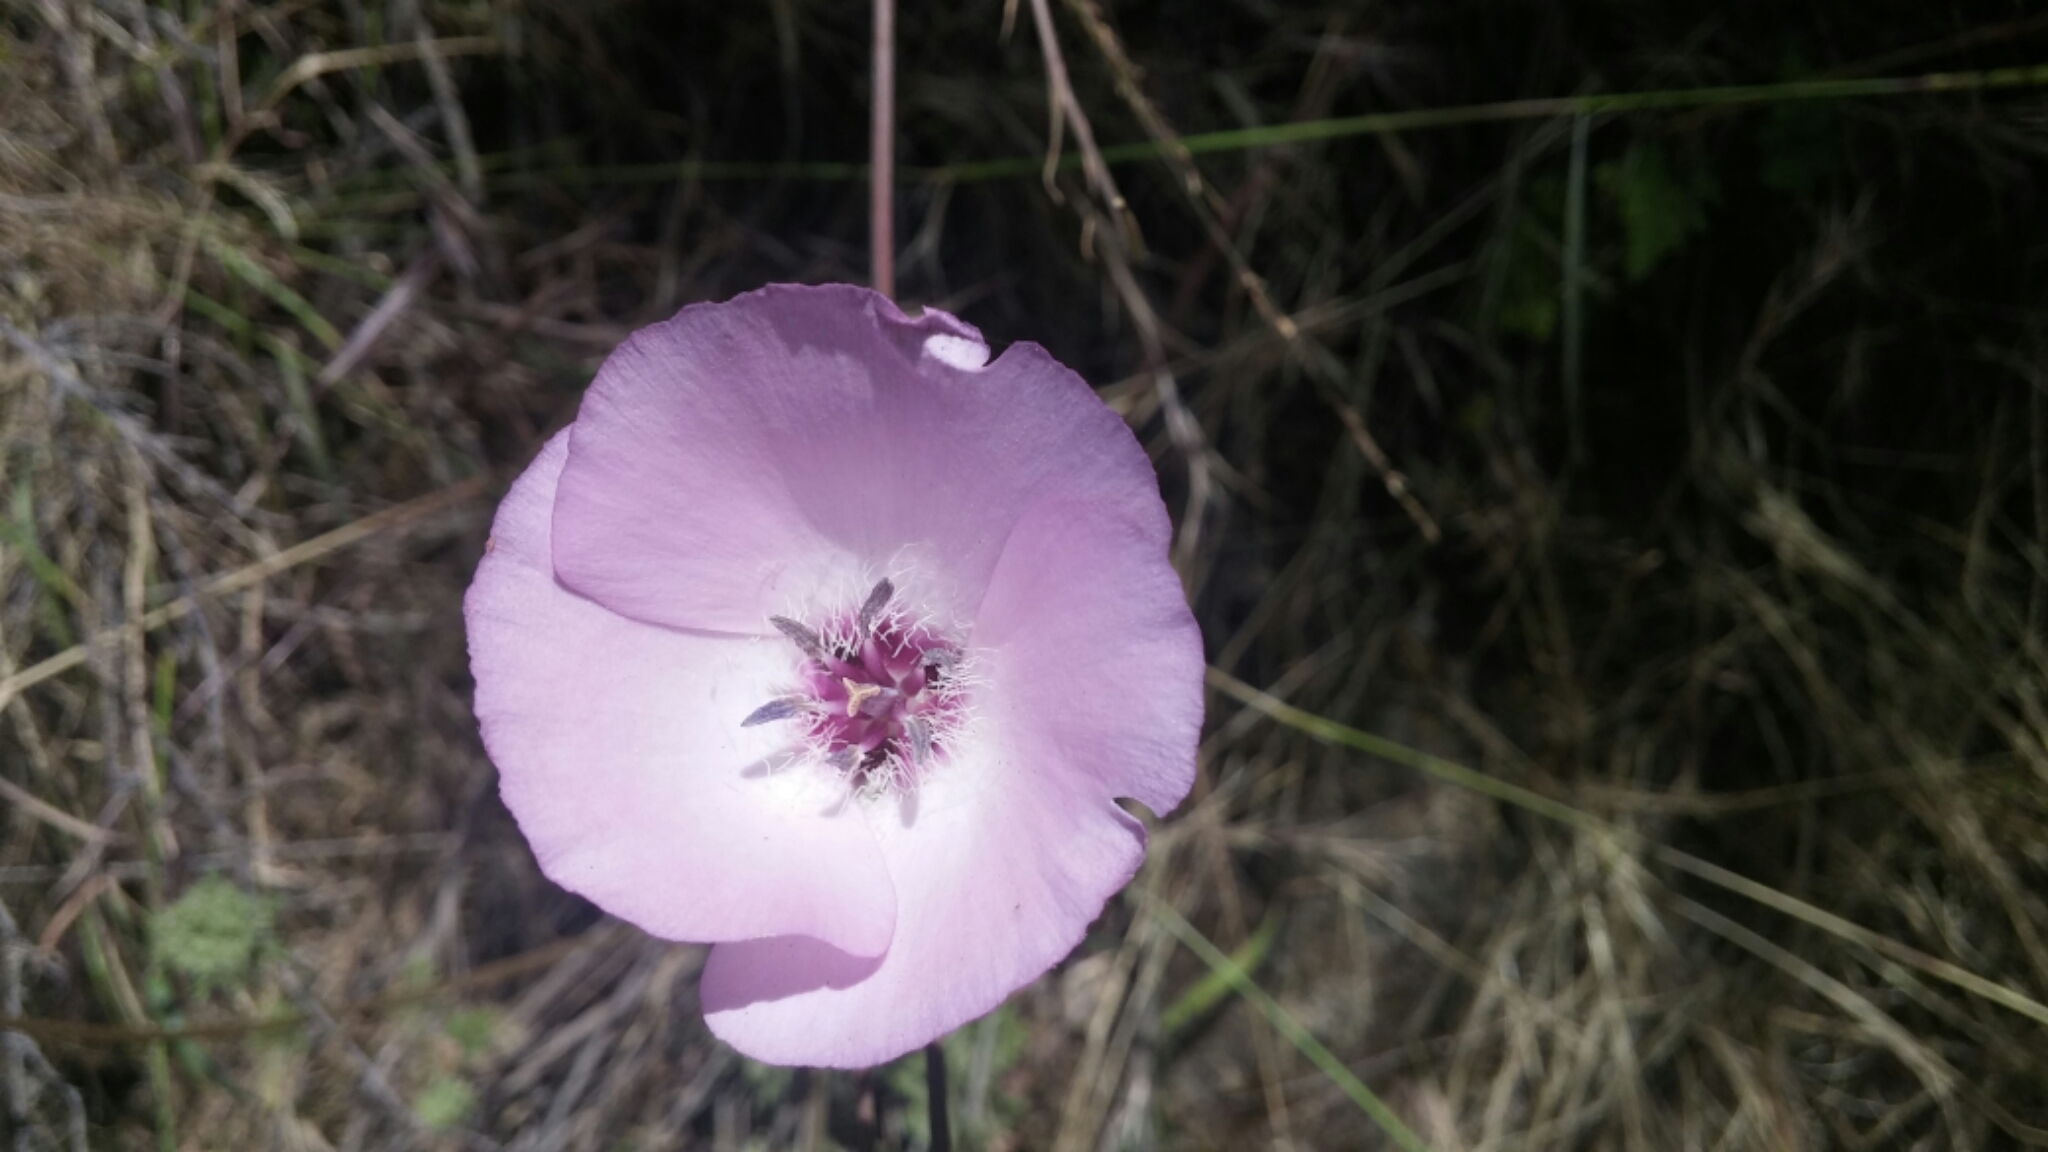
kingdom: Plantae
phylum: Tracheophyta
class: Liliopsida
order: Liliales
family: Liliaceae
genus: Calochortus
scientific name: Calochortus splendens
